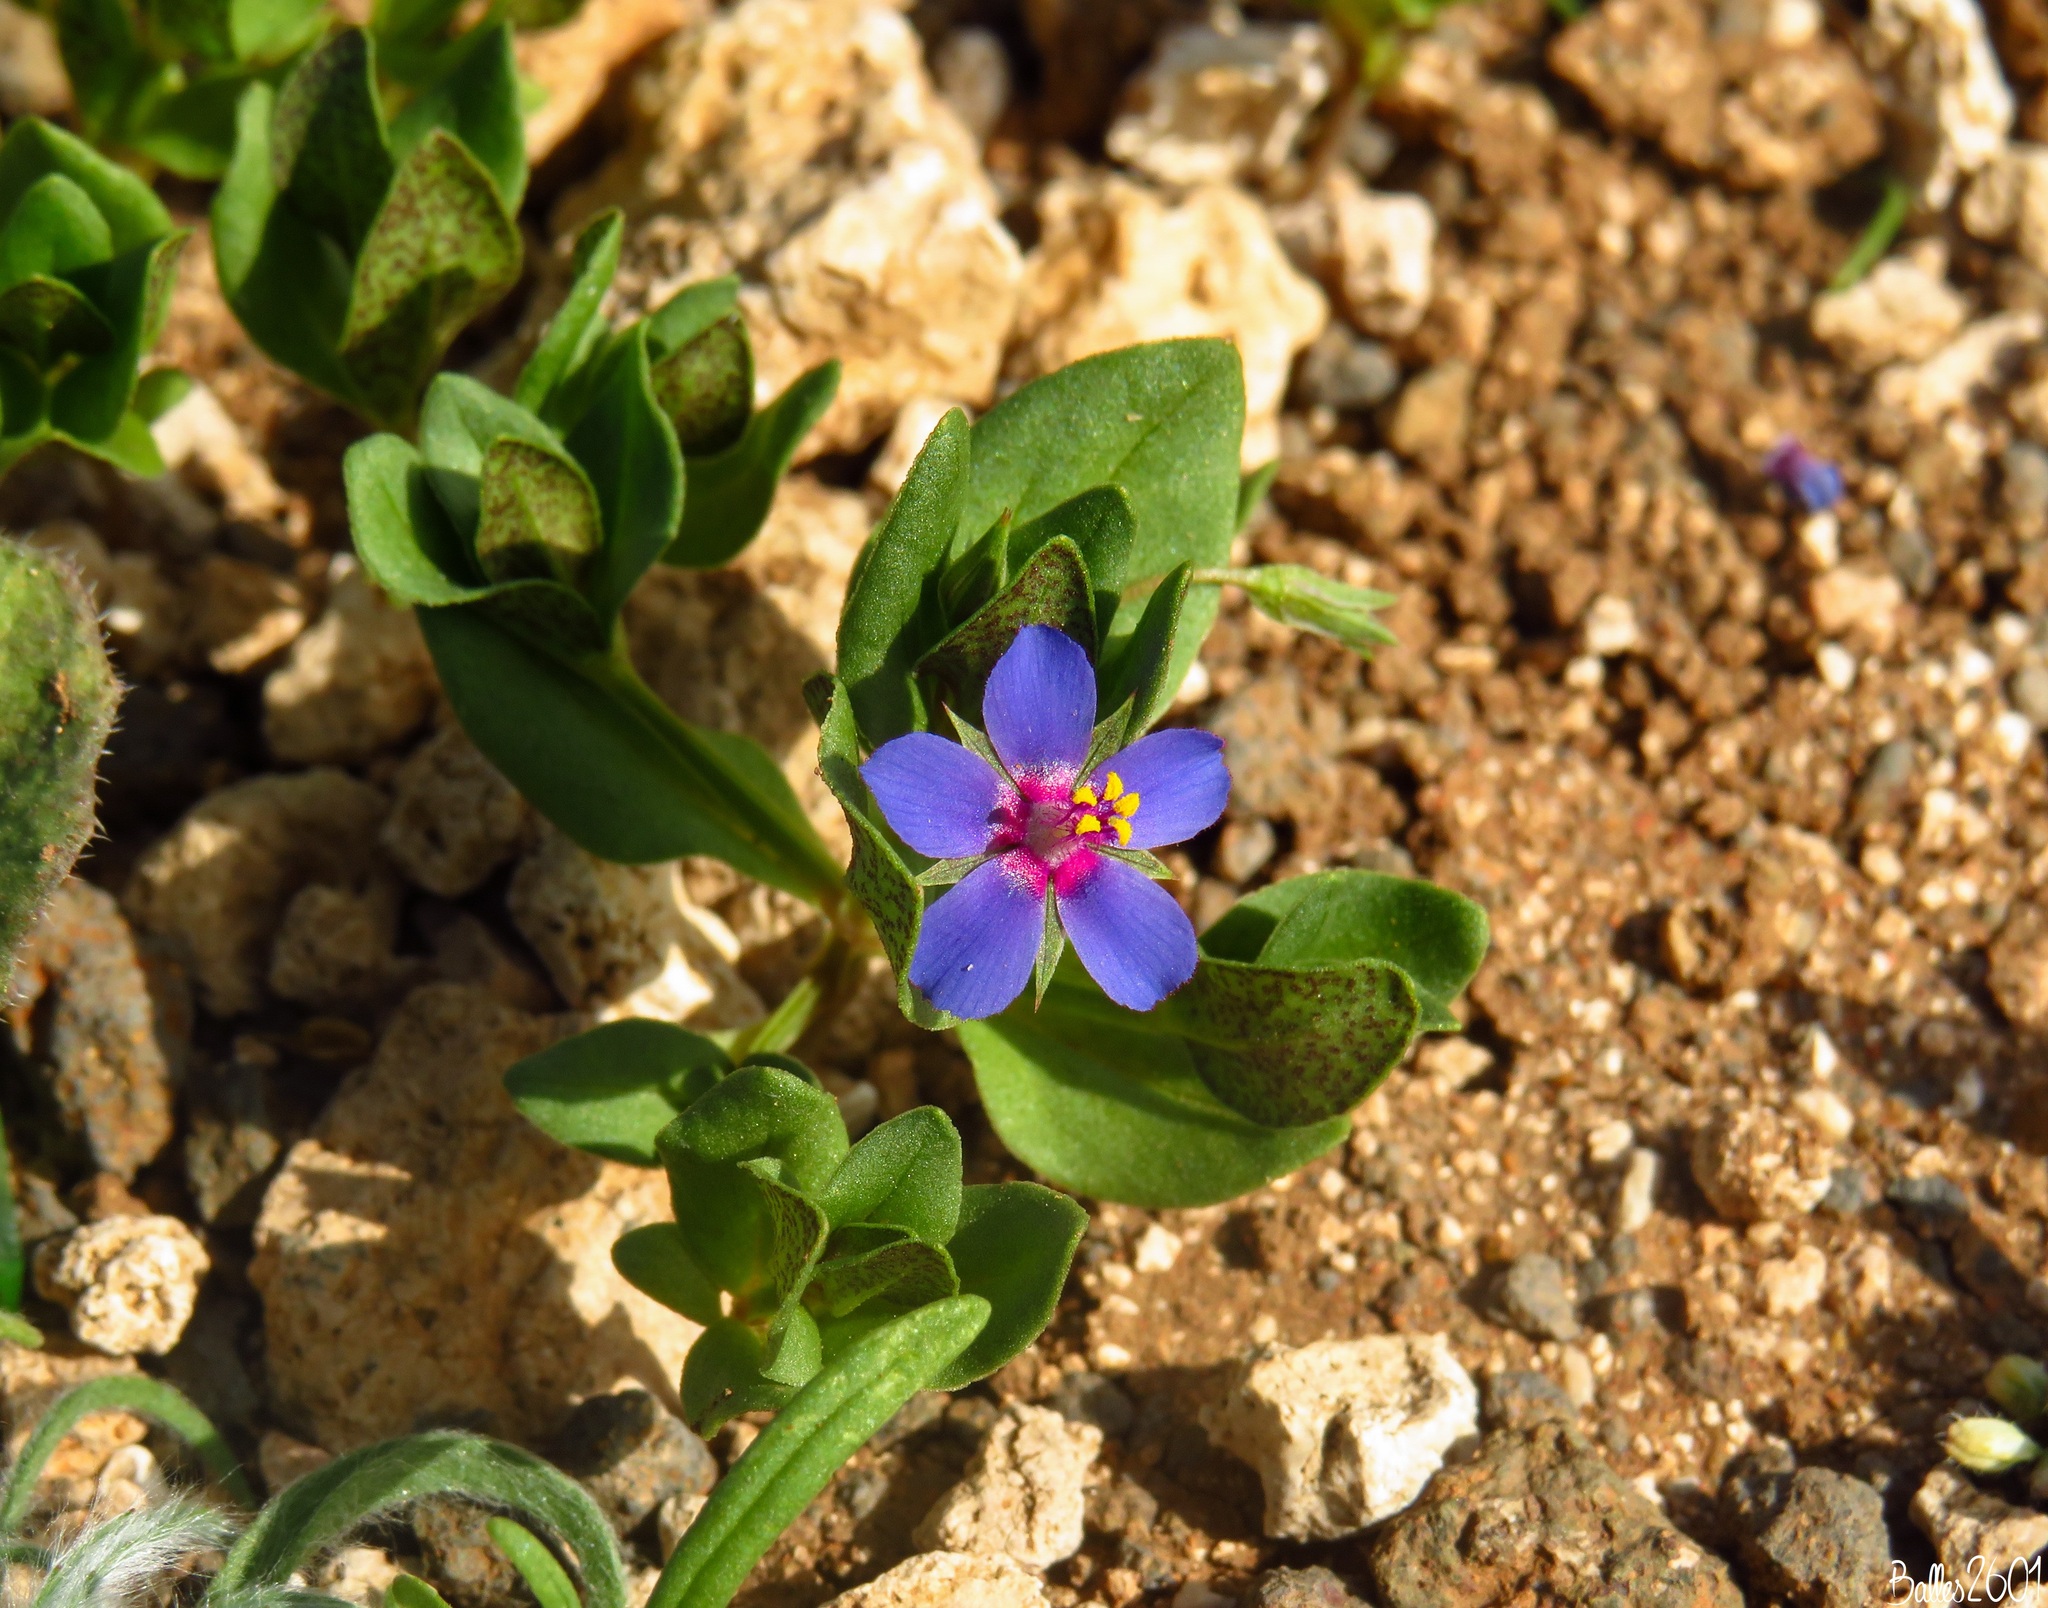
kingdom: Plantae
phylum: Tracheophyta
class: Magnoliopsida
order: Ericales
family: Primulaceae
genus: Lysimachia
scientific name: Lysimachia loeflingii
